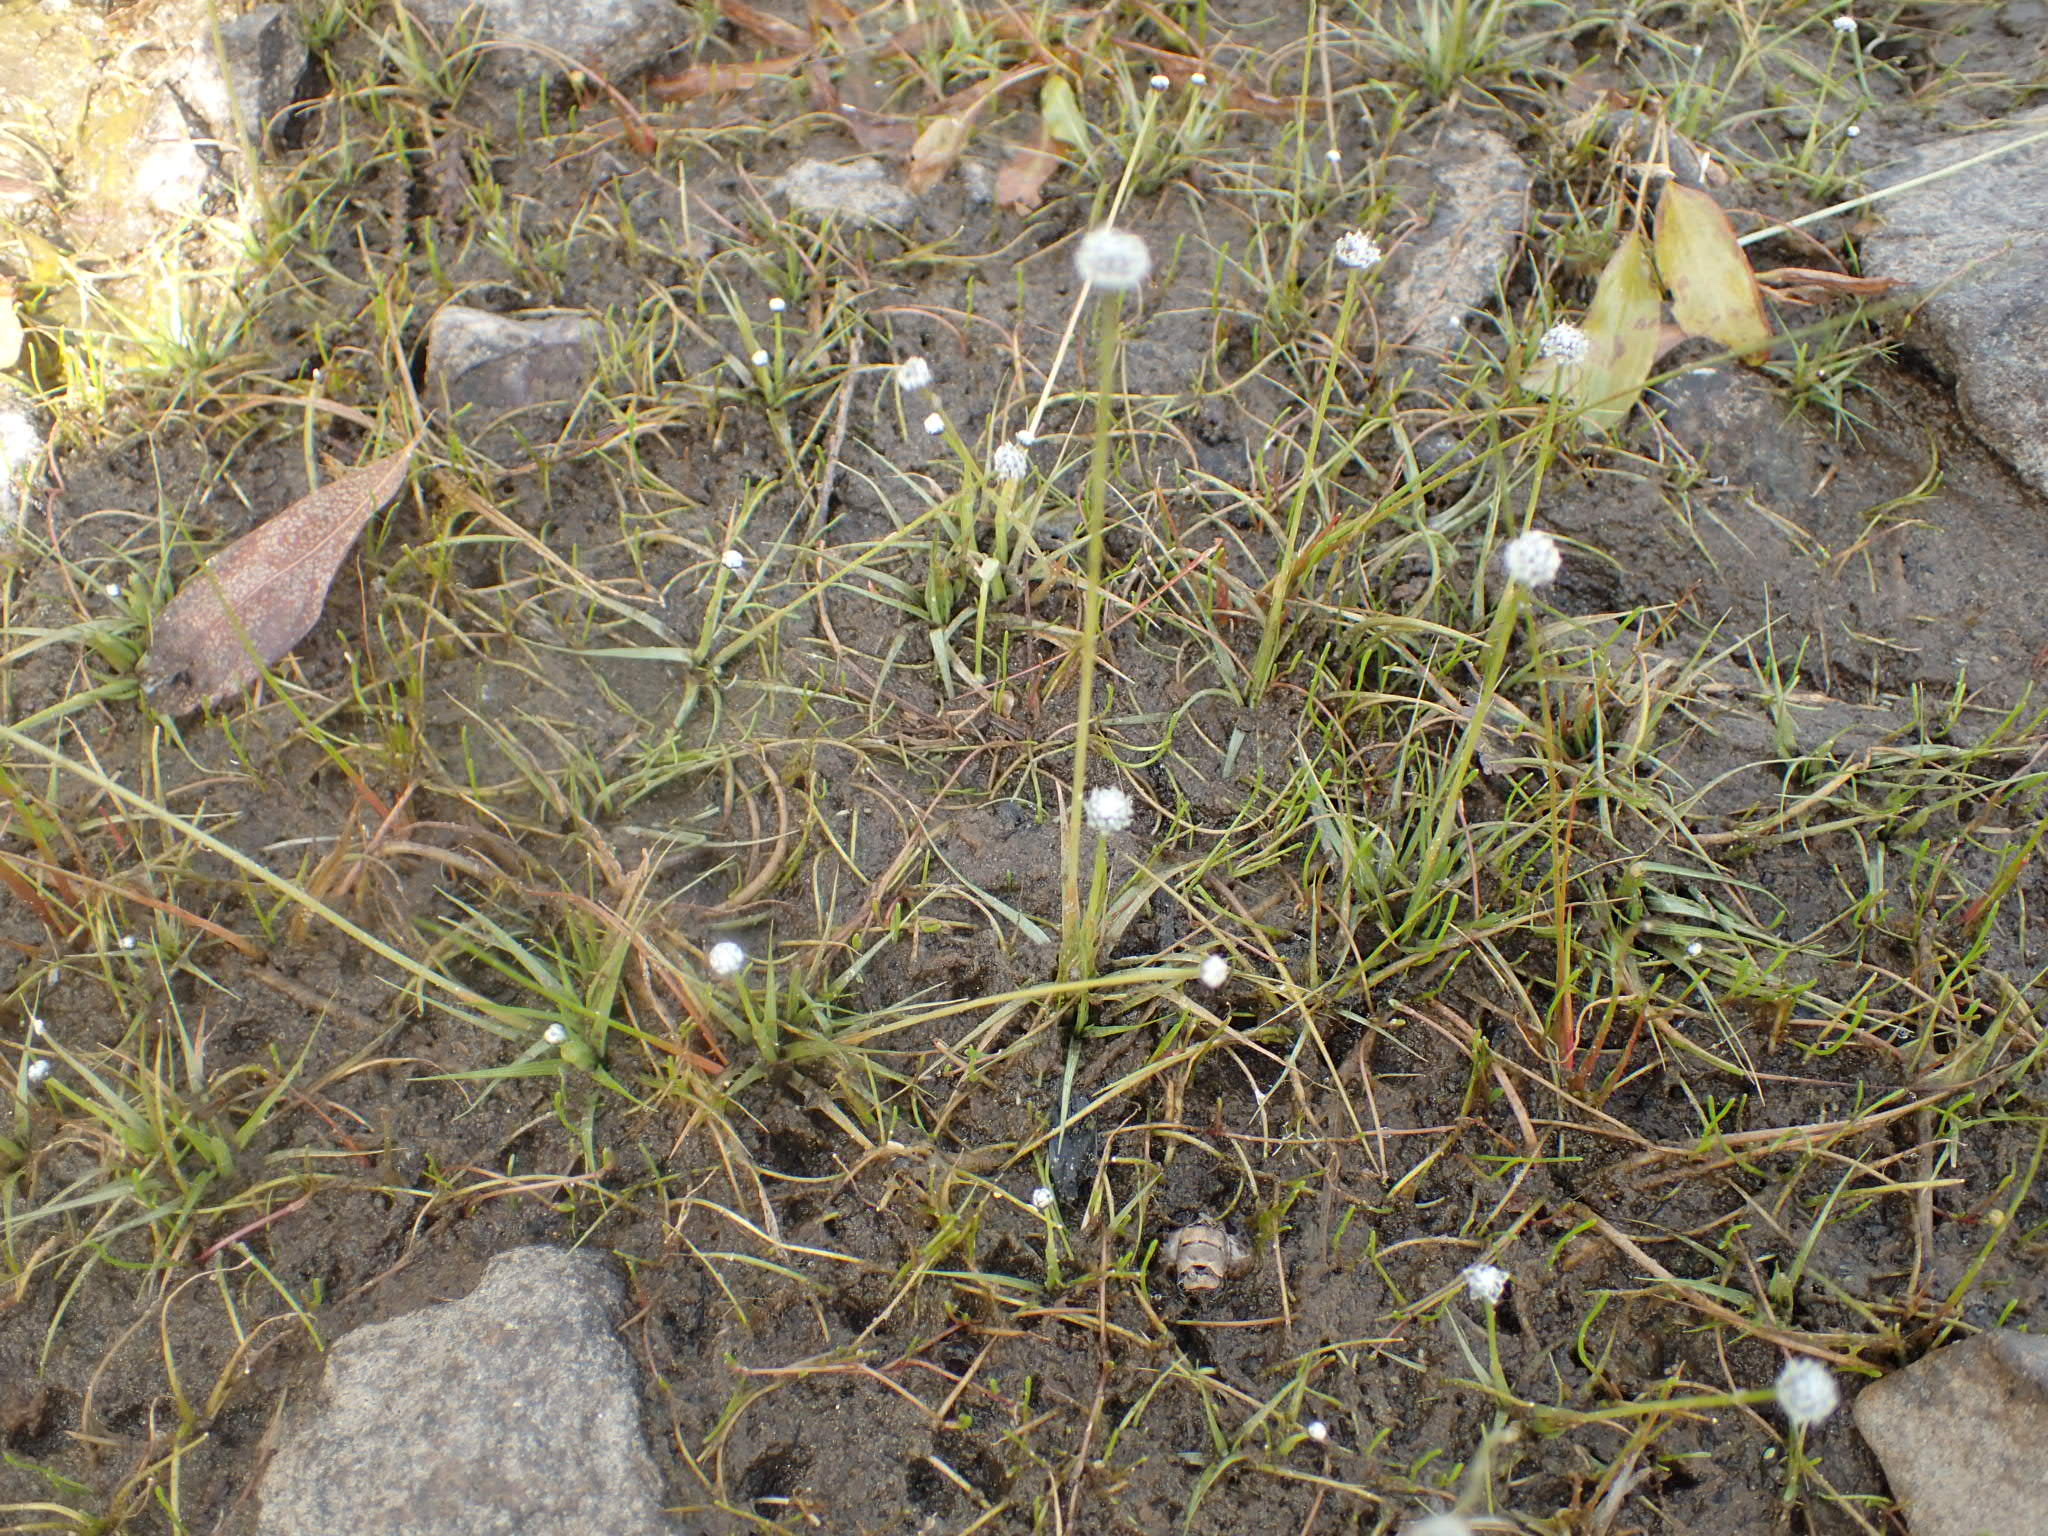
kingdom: Plantae
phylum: Tracheophyta
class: Liliopsida
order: Poales
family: Eriocaulaceae
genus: Eriocaulon
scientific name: Eriocaulon aquaticum
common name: Pipewort
